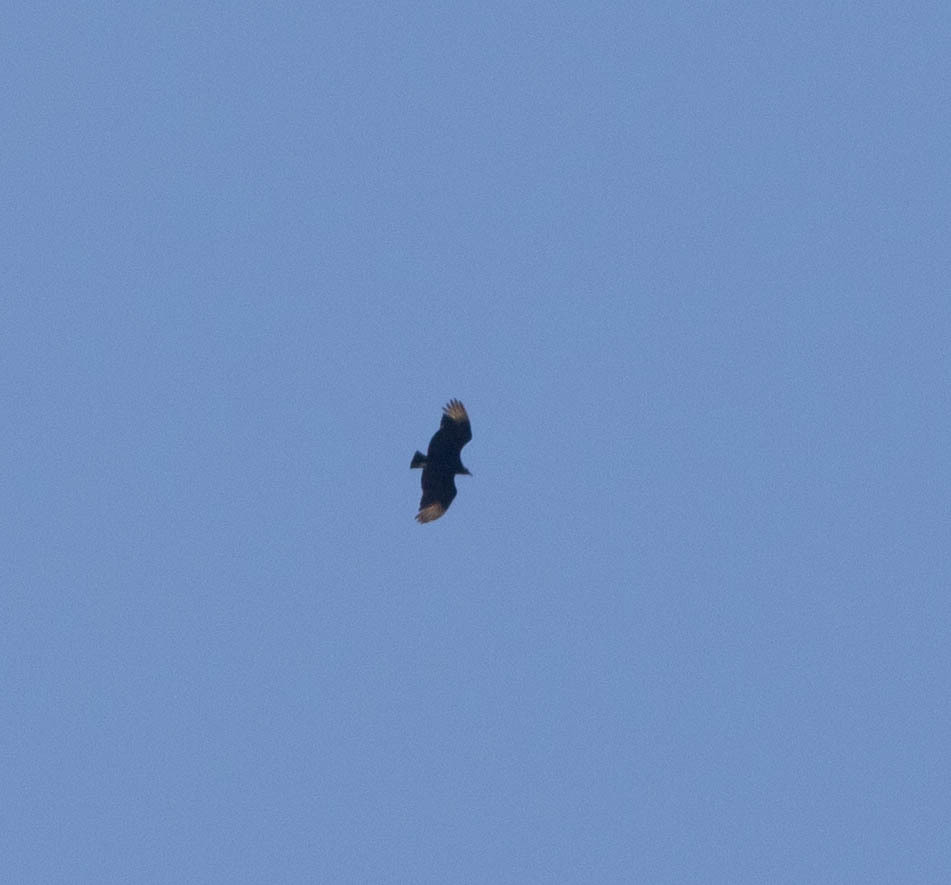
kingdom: Animalia
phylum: Chordata
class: Aves
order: Accipitriformes
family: Cathartidae
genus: Coragyps
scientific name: Coragyps atratus
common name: Black vulture
